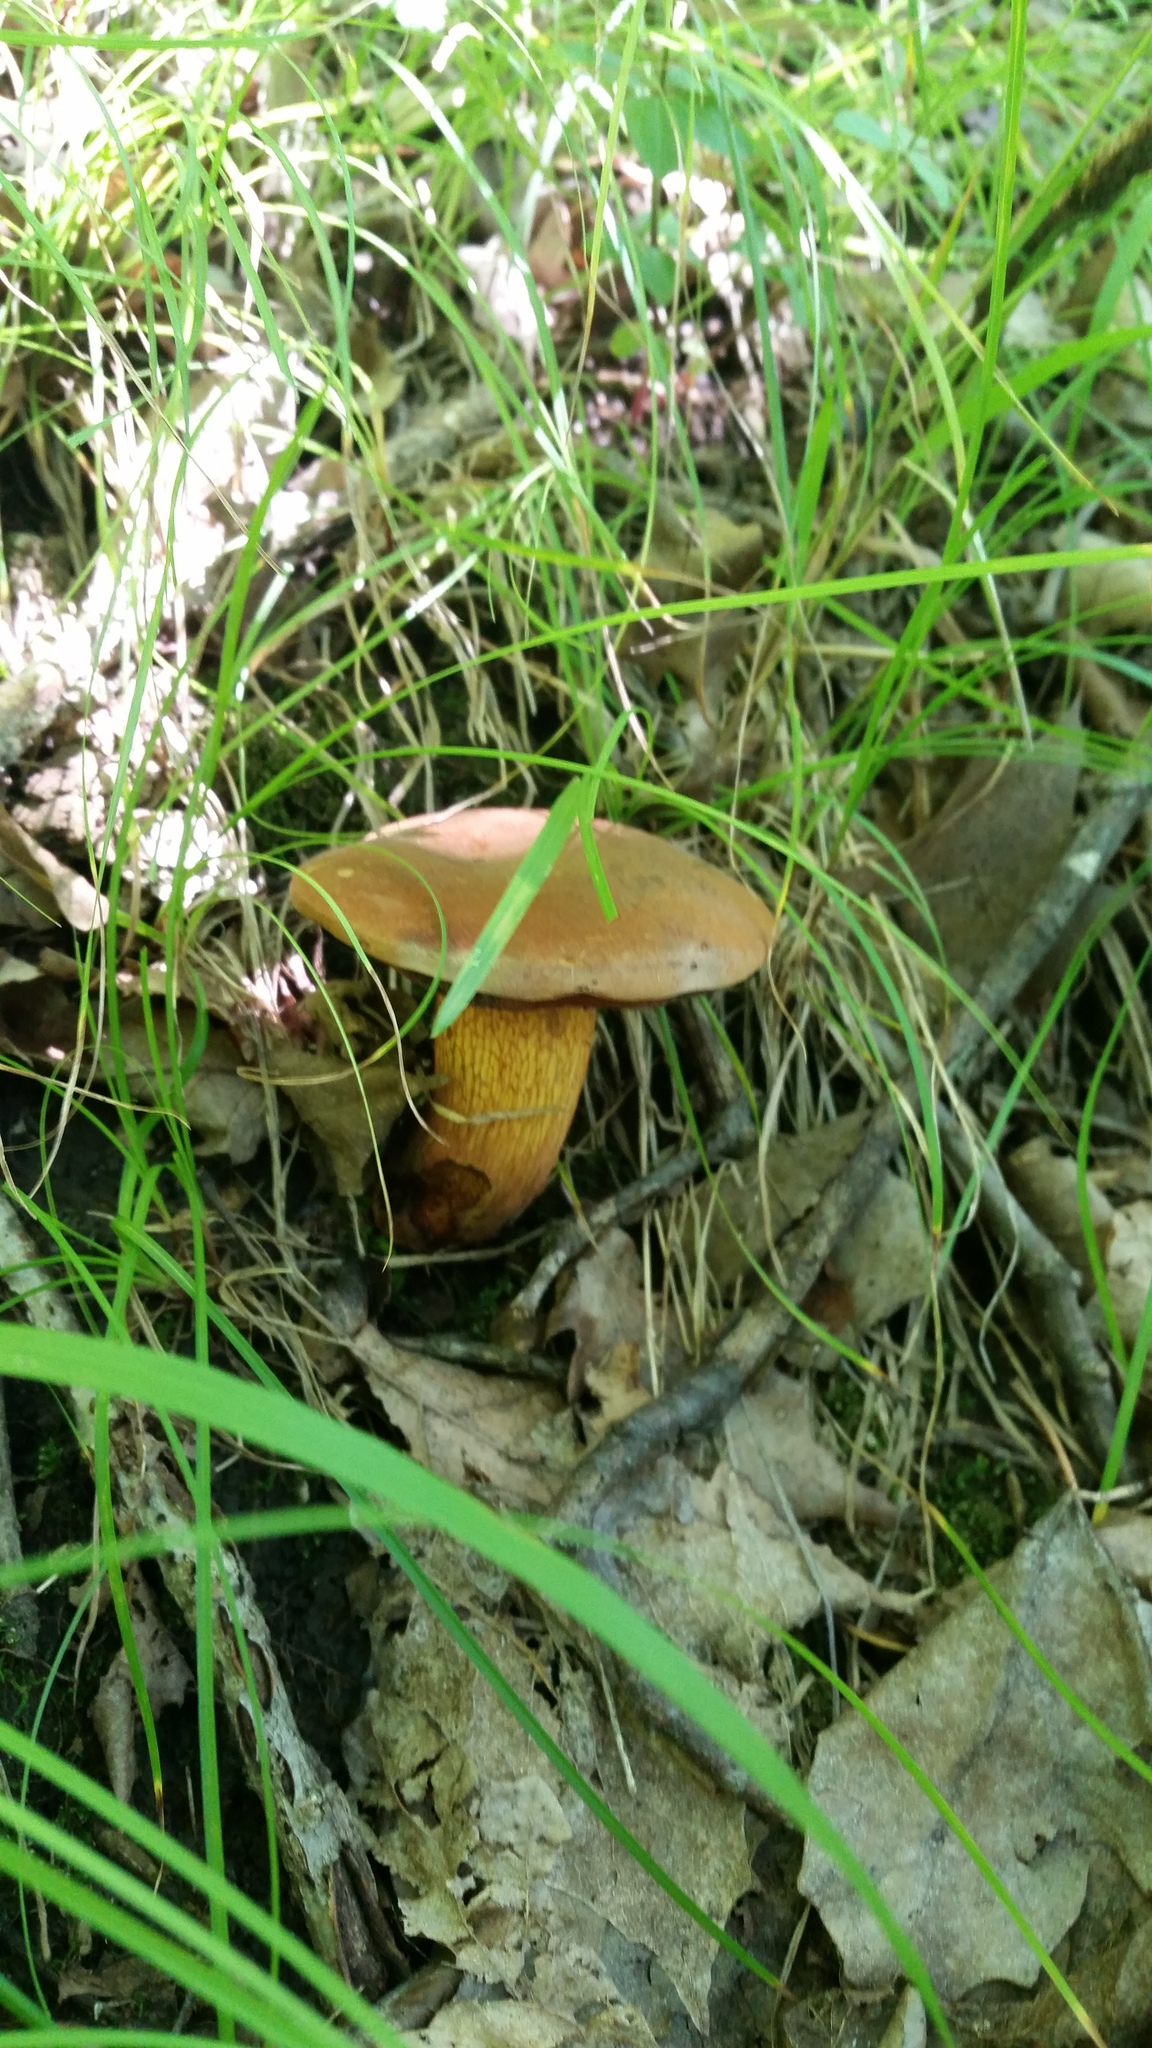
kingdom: Fungi
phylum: Basidiomycota
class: Agaricomycetes
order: Boletales
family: Boletaceae
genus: Suillellus
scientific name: Suillellus luridus
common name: Lurid bolete
